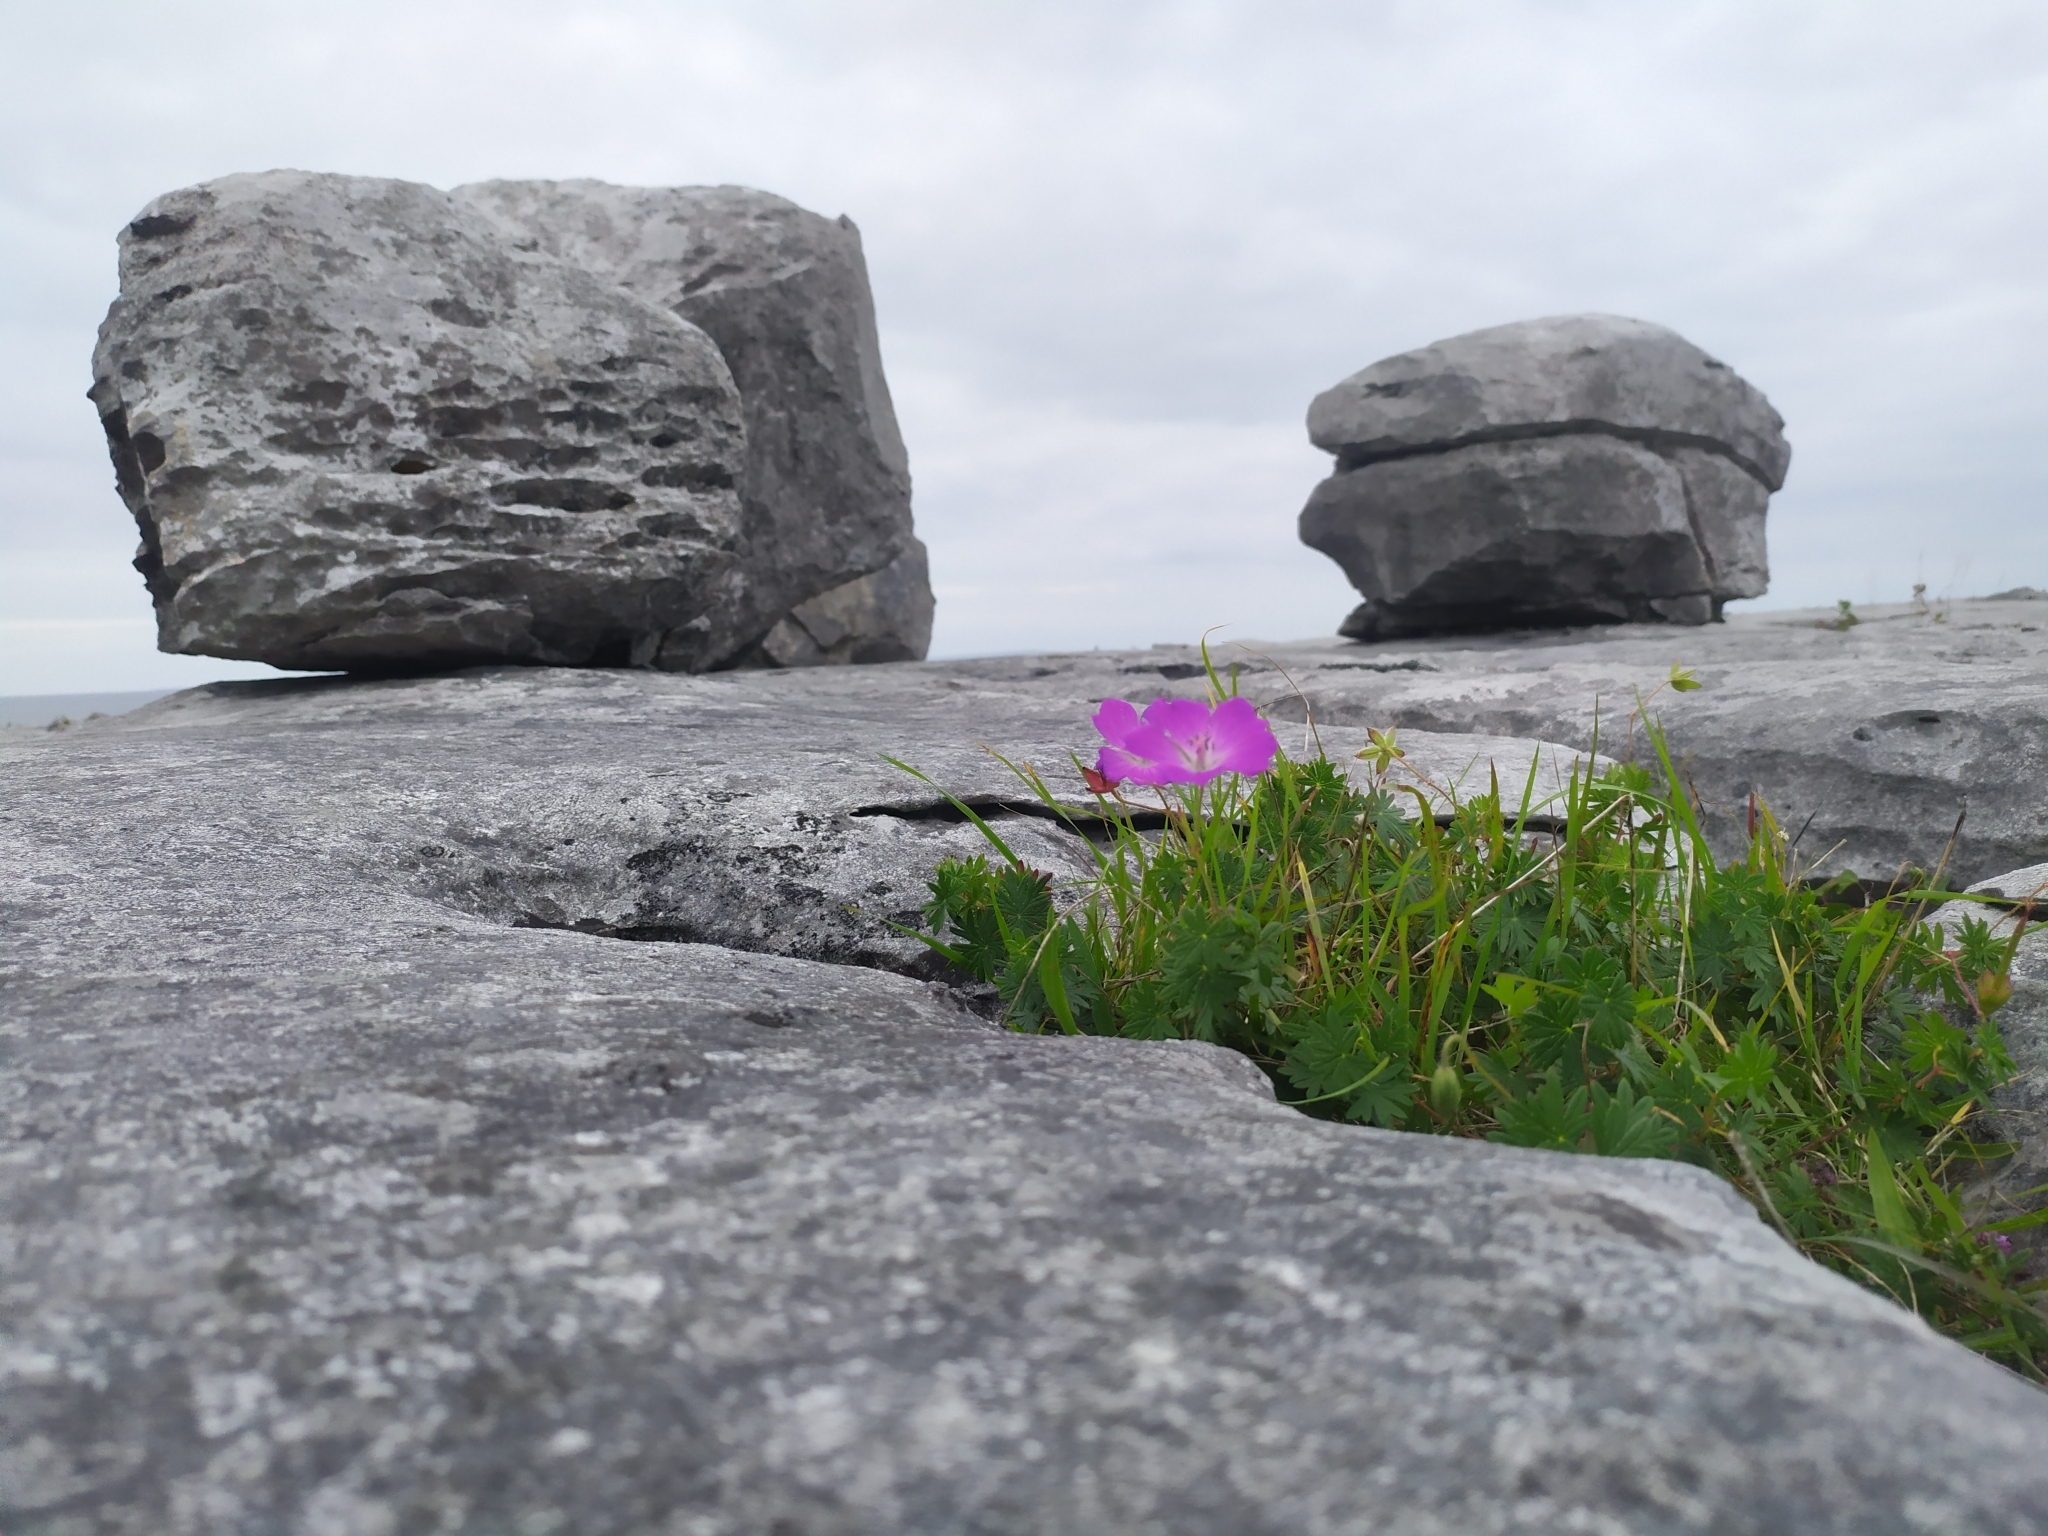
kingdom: Plantae
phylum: Tracheophyta
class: Magnoliopsida
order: Geraniales
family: Geraniaceae
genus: Geranium
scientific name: Geranium sanguineum
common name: Bloody crane's-bill
